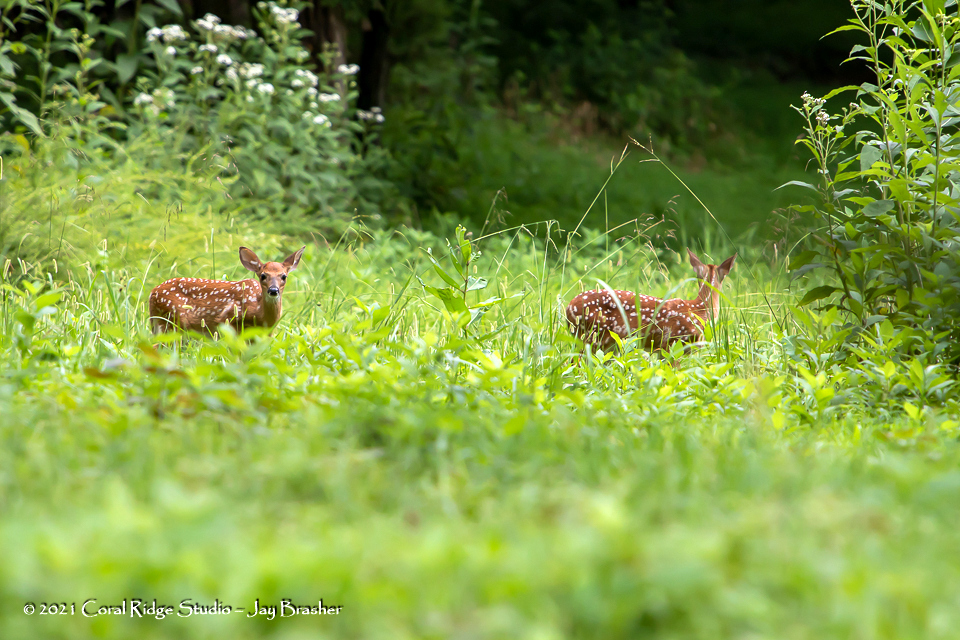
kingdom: Animalia
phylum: Chordata
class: Mammalia
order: Artiodactyla
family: Cervidae
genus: Odocoileus
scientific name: Odocoileus virginianus
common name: White-tailed deer
